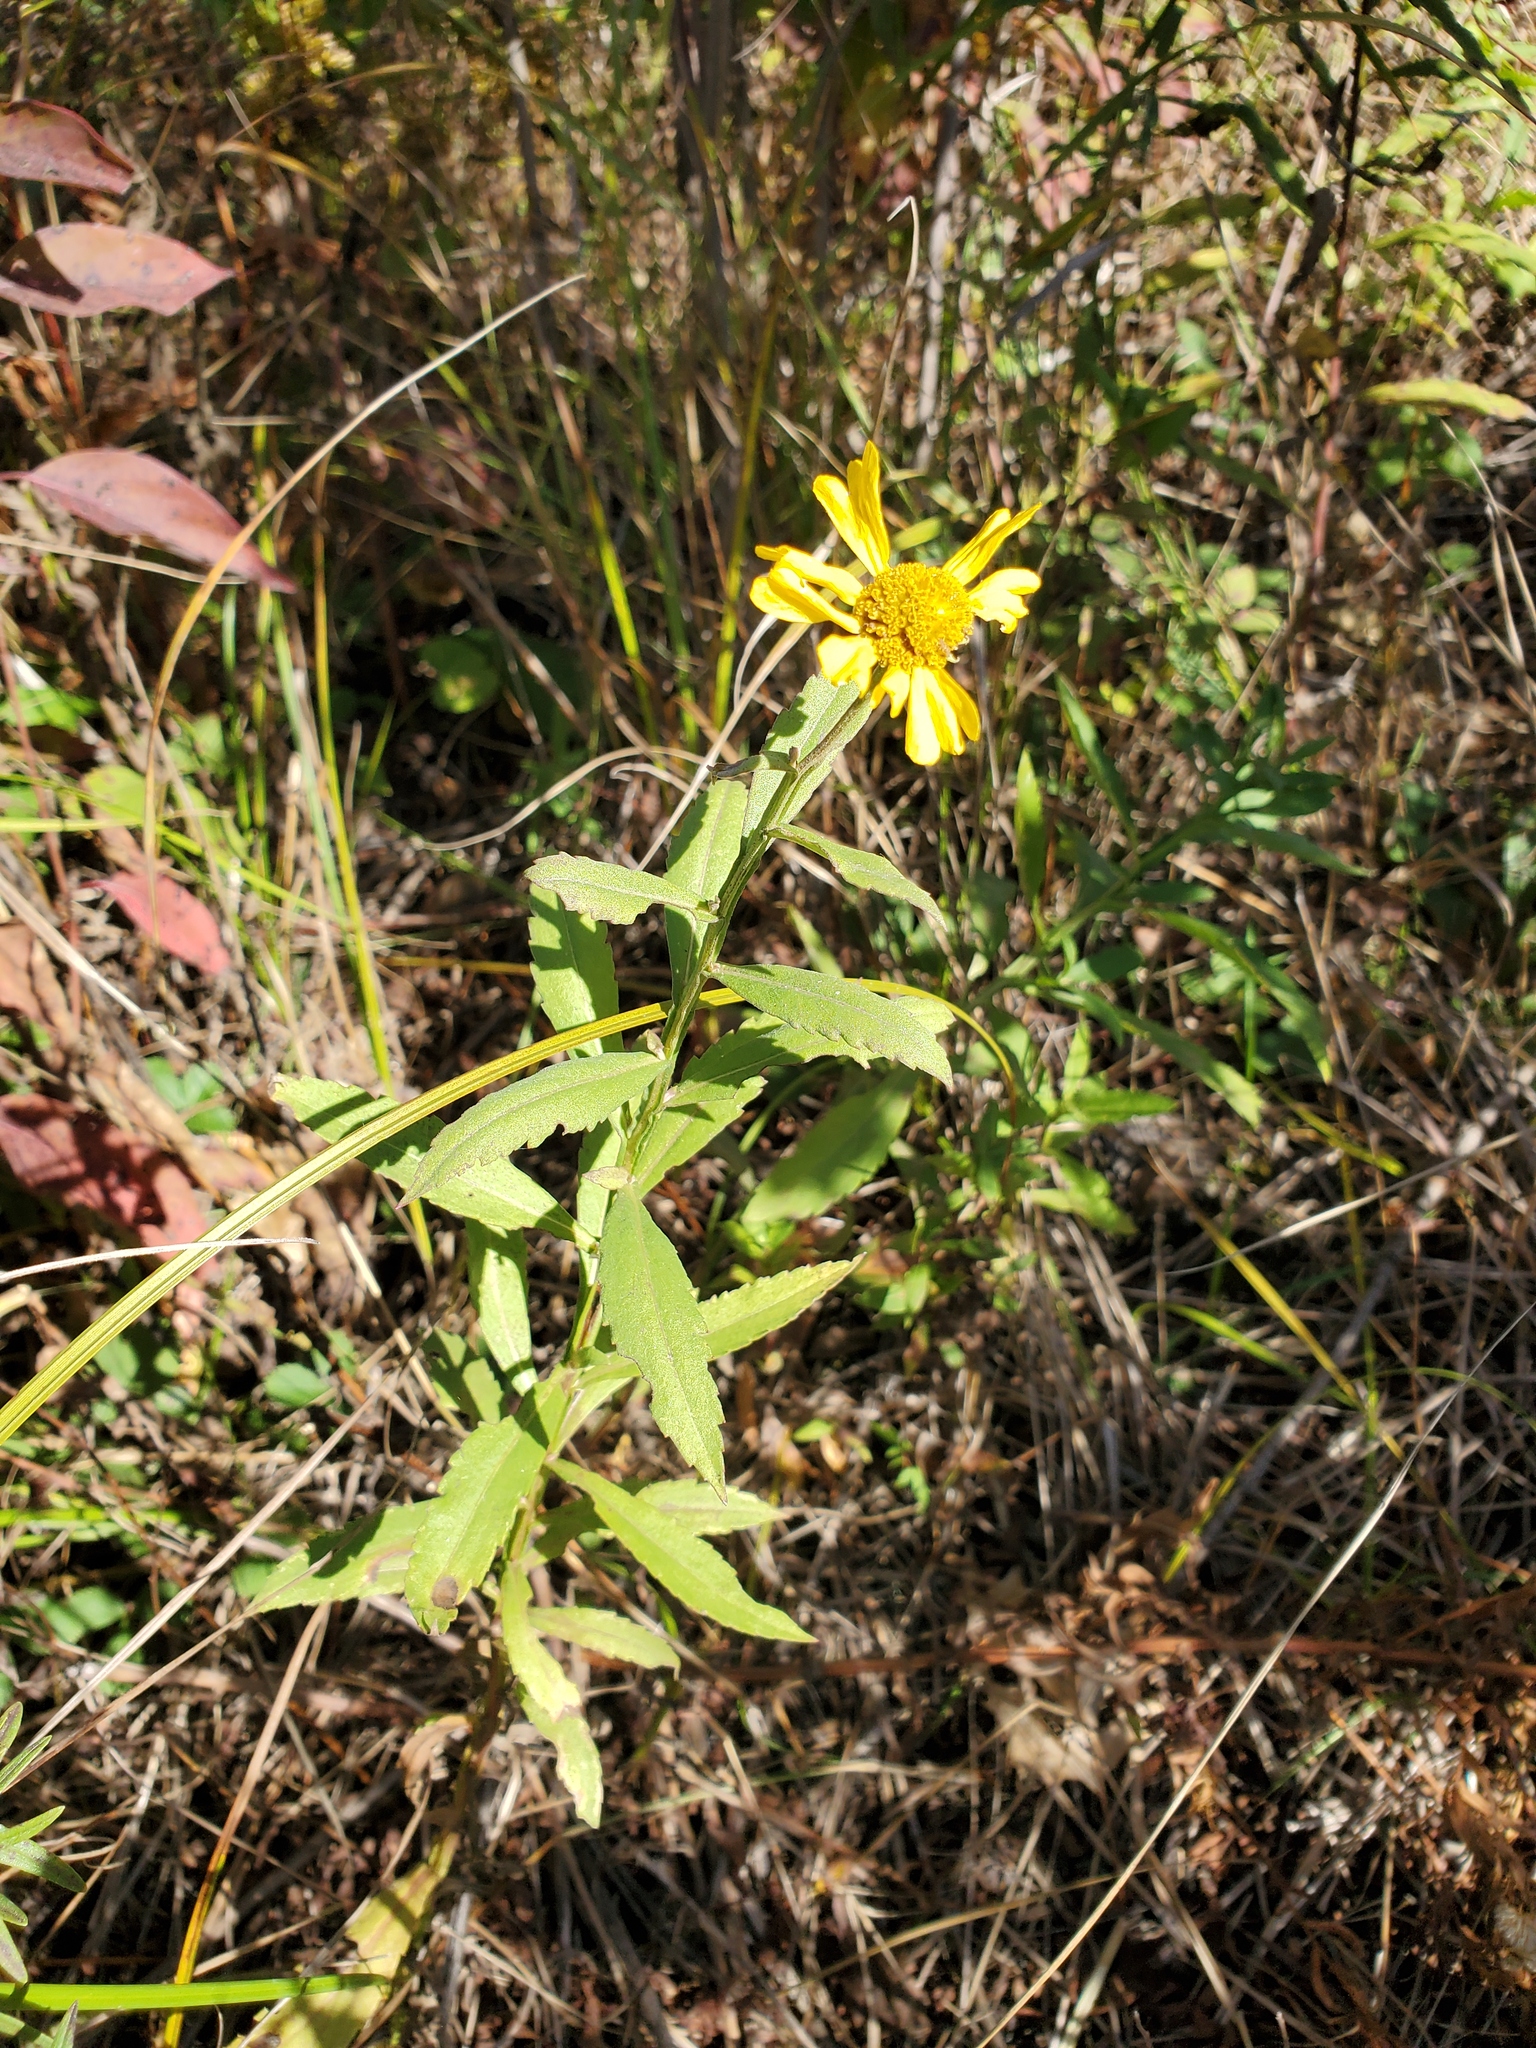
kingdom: Plantae
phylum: Tracheophyta
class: Magnoliopsida
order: Asterales
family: Asteraceae
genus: Helenium
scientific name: Helenium autumnale
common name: Sneezeweed
